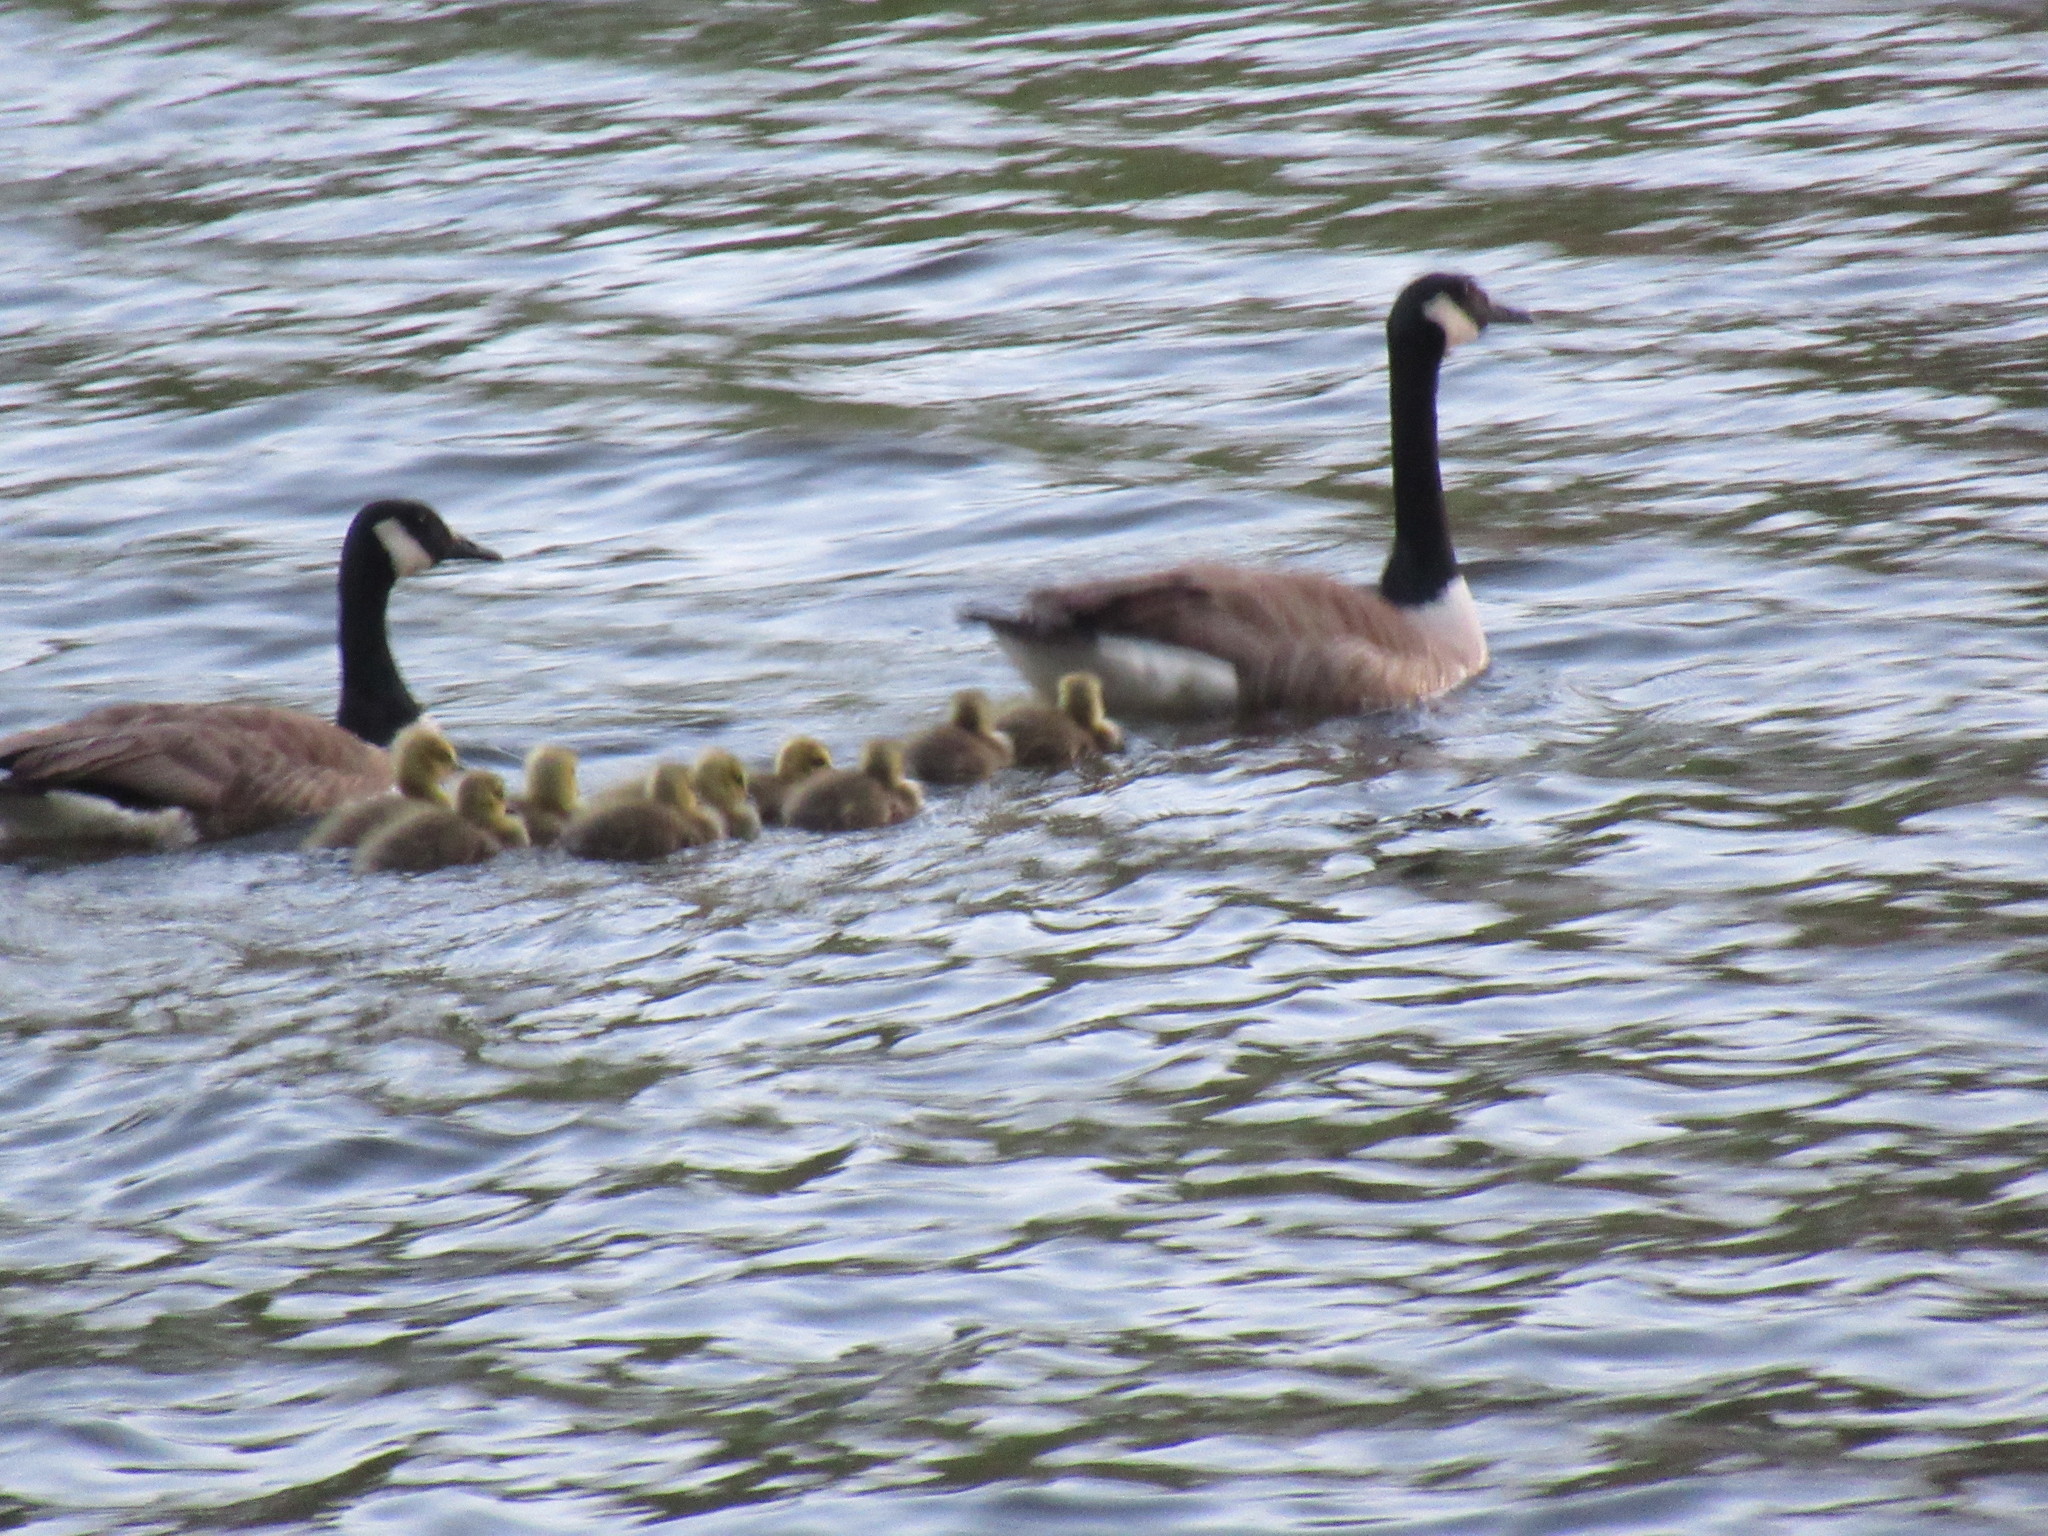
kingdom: Animalia
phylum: Chordata
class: Aves
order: Anseriformes
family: Anatidae
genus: Branta
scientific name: Branta canadensis
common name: Canada goose
